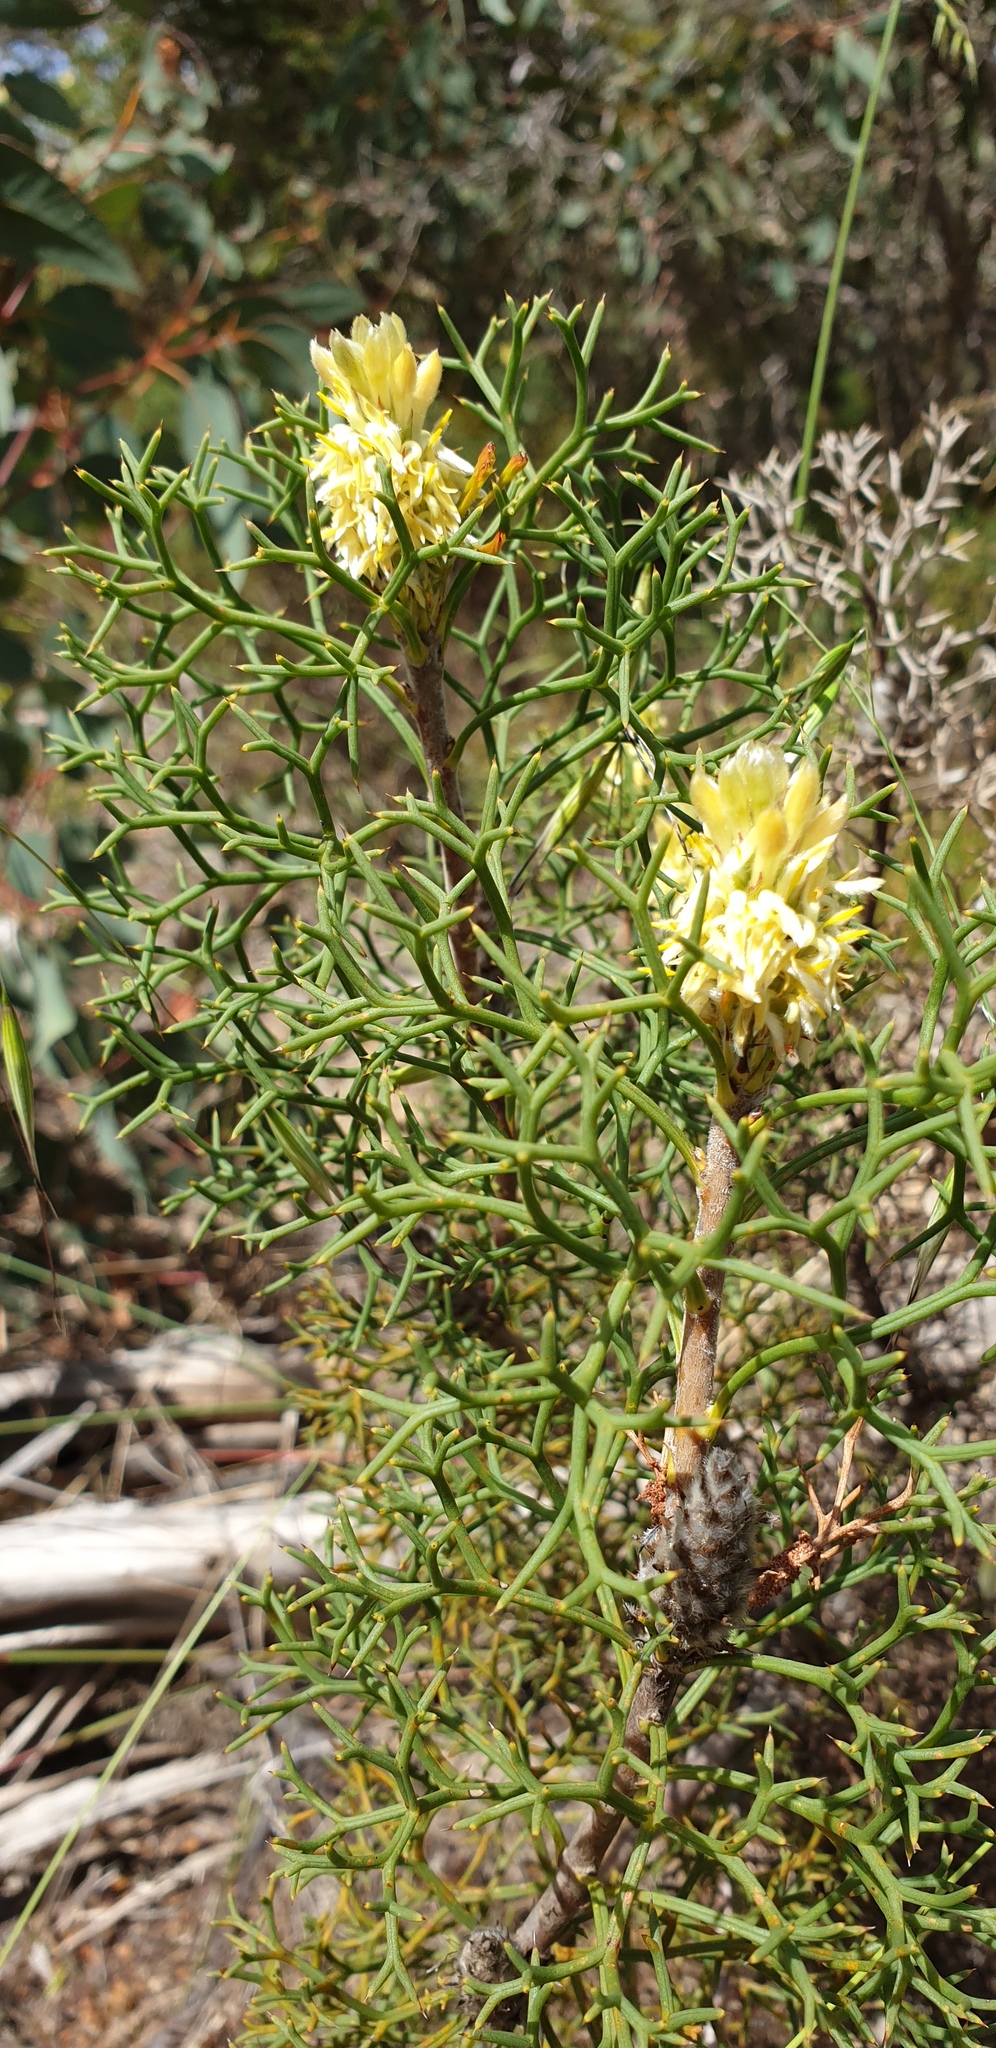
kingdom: Plantae
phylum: Tracheophyta
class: Magnoliopsida
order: Proteales
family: Proteaceae
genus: Petrophile
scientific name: Petrophile multisecta
